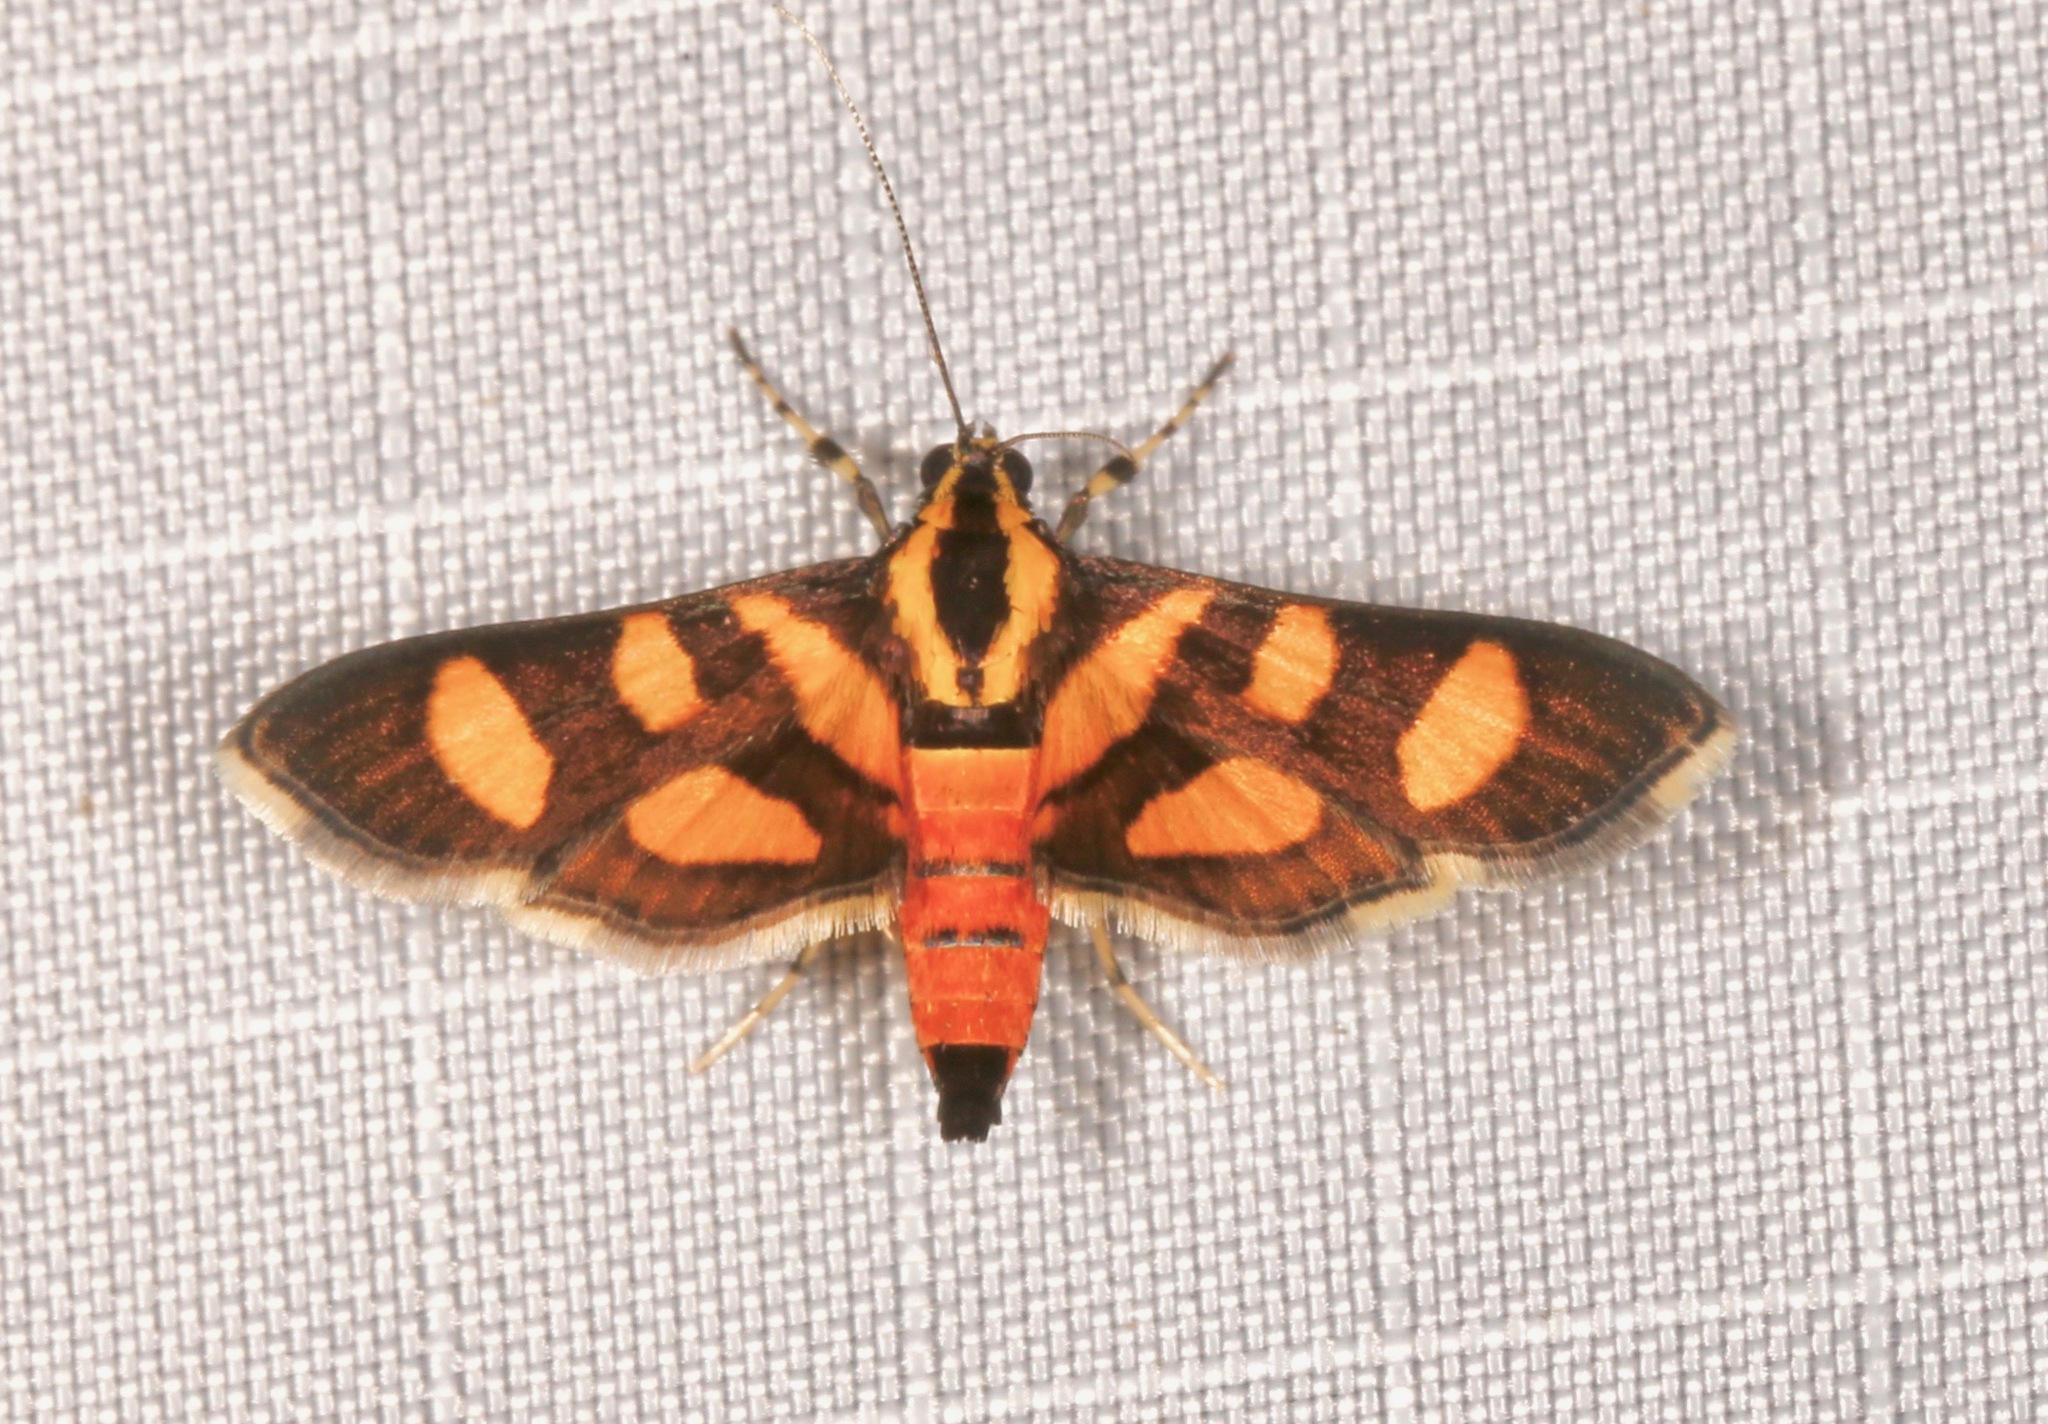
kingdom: Animalia
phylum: Arthropoda
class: Insecta
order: Lepidoptera
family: Crambidae
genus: Syngamia
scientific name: Syngamia florella
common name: Orange-spotted flower moth
